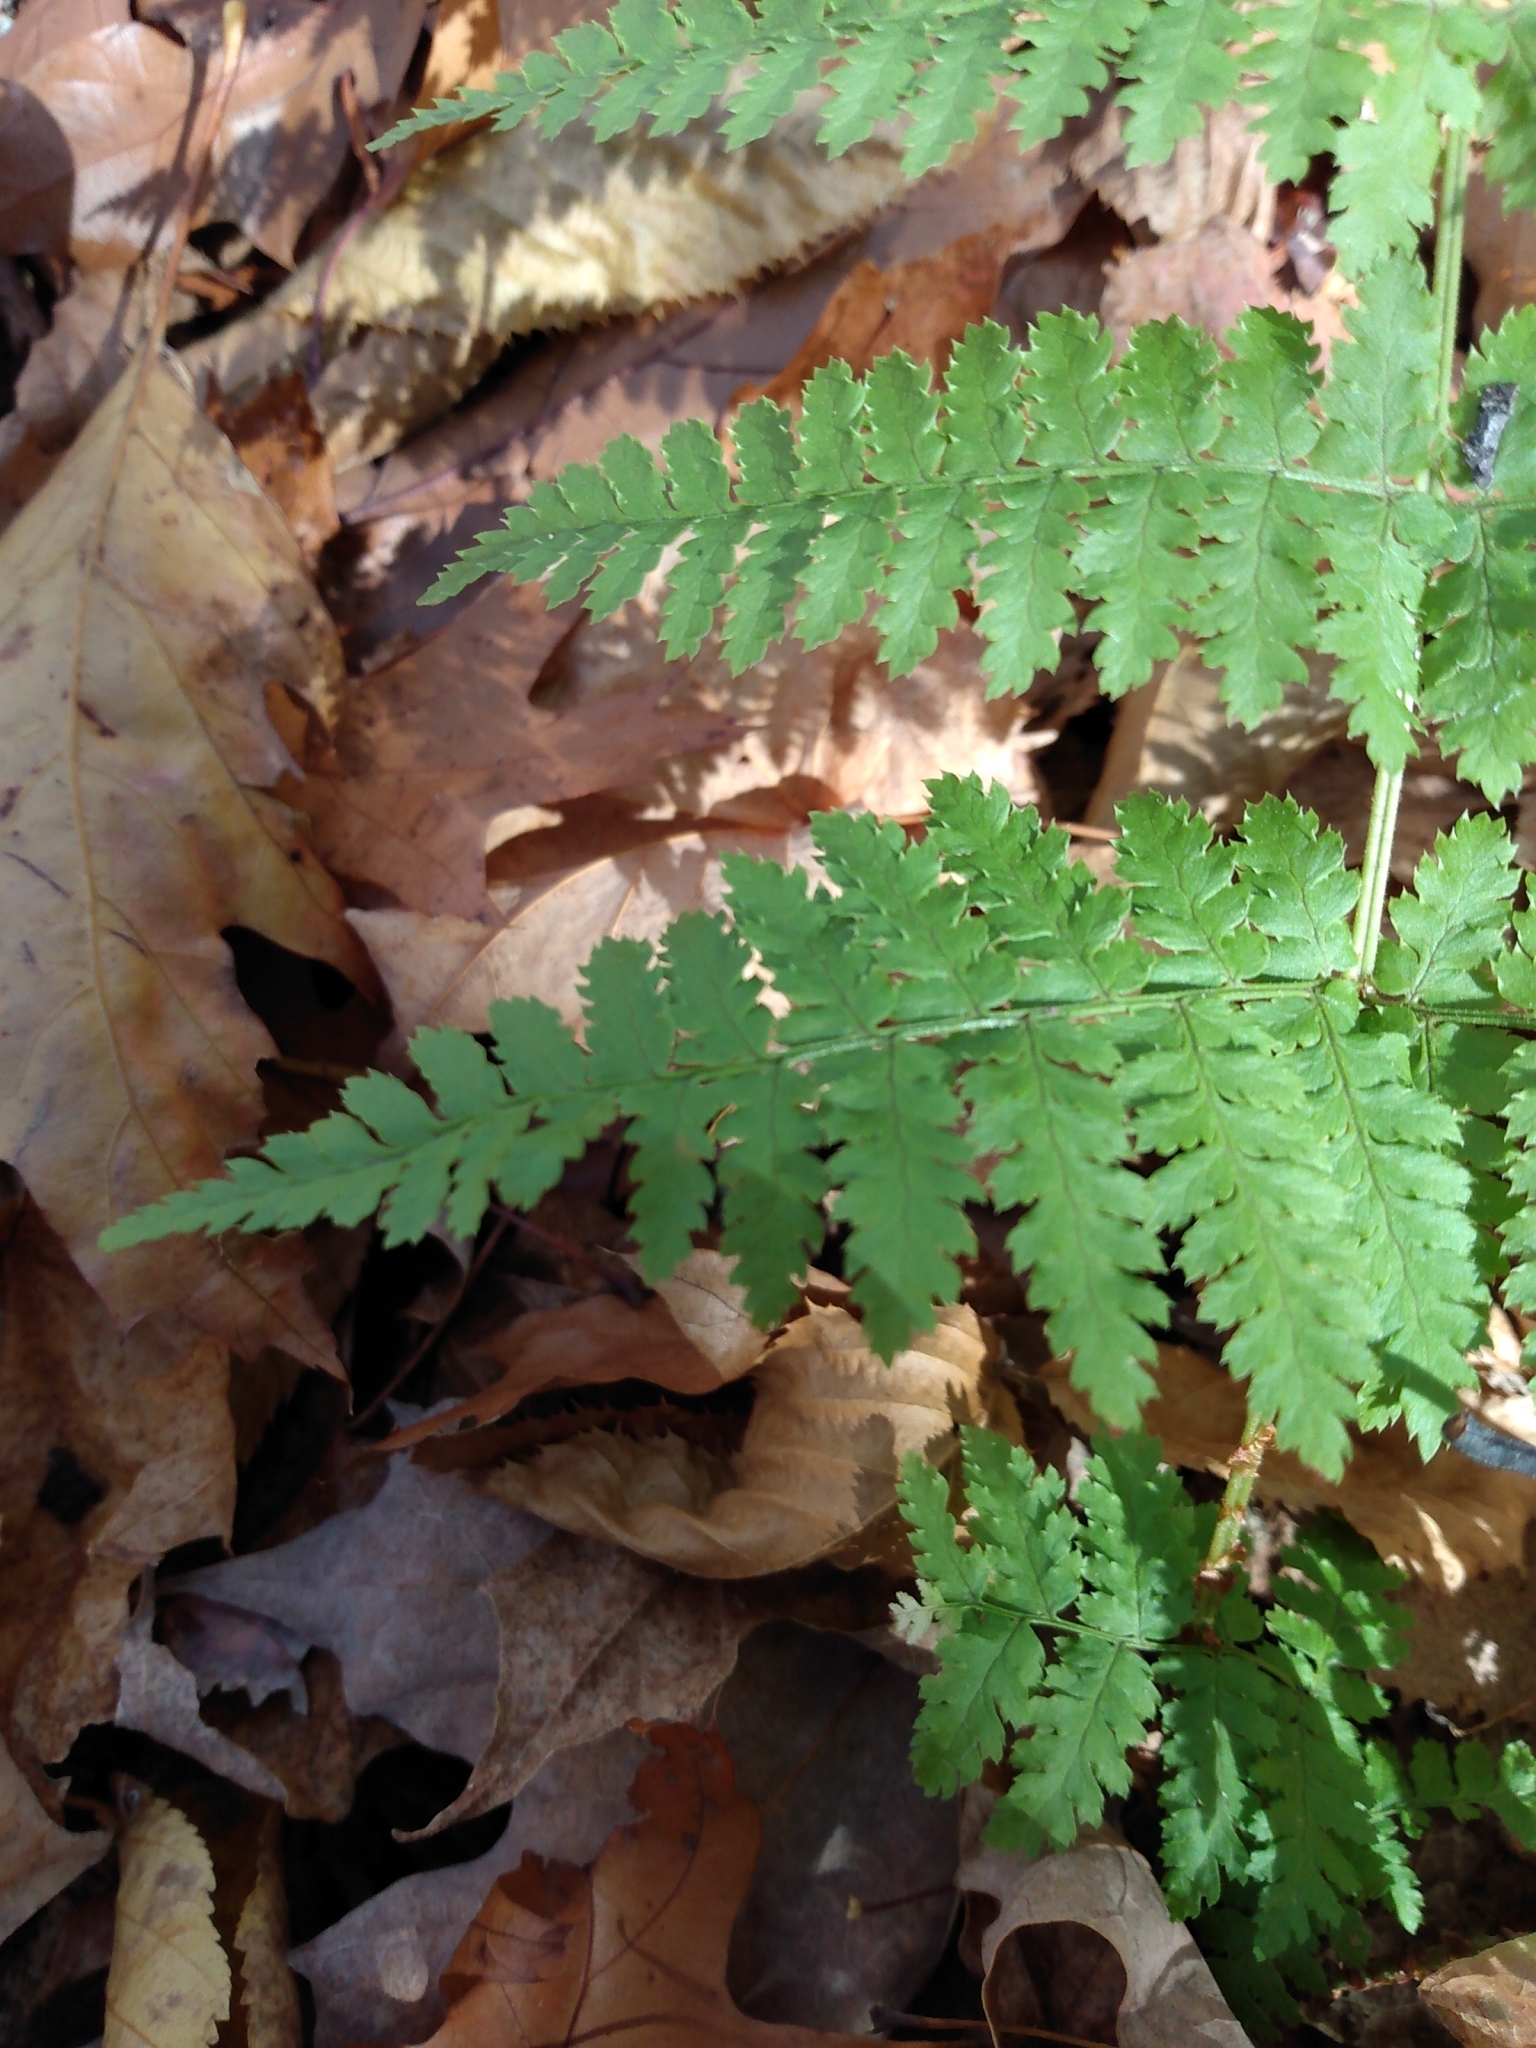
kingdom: Plantae
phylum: Tracheophyta
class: Polypodiopsida
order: Polypodiales
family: Dryopteridaceae
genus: Dryopteris
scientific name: Dryopteris intermedia
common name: Evergreen wood fern
